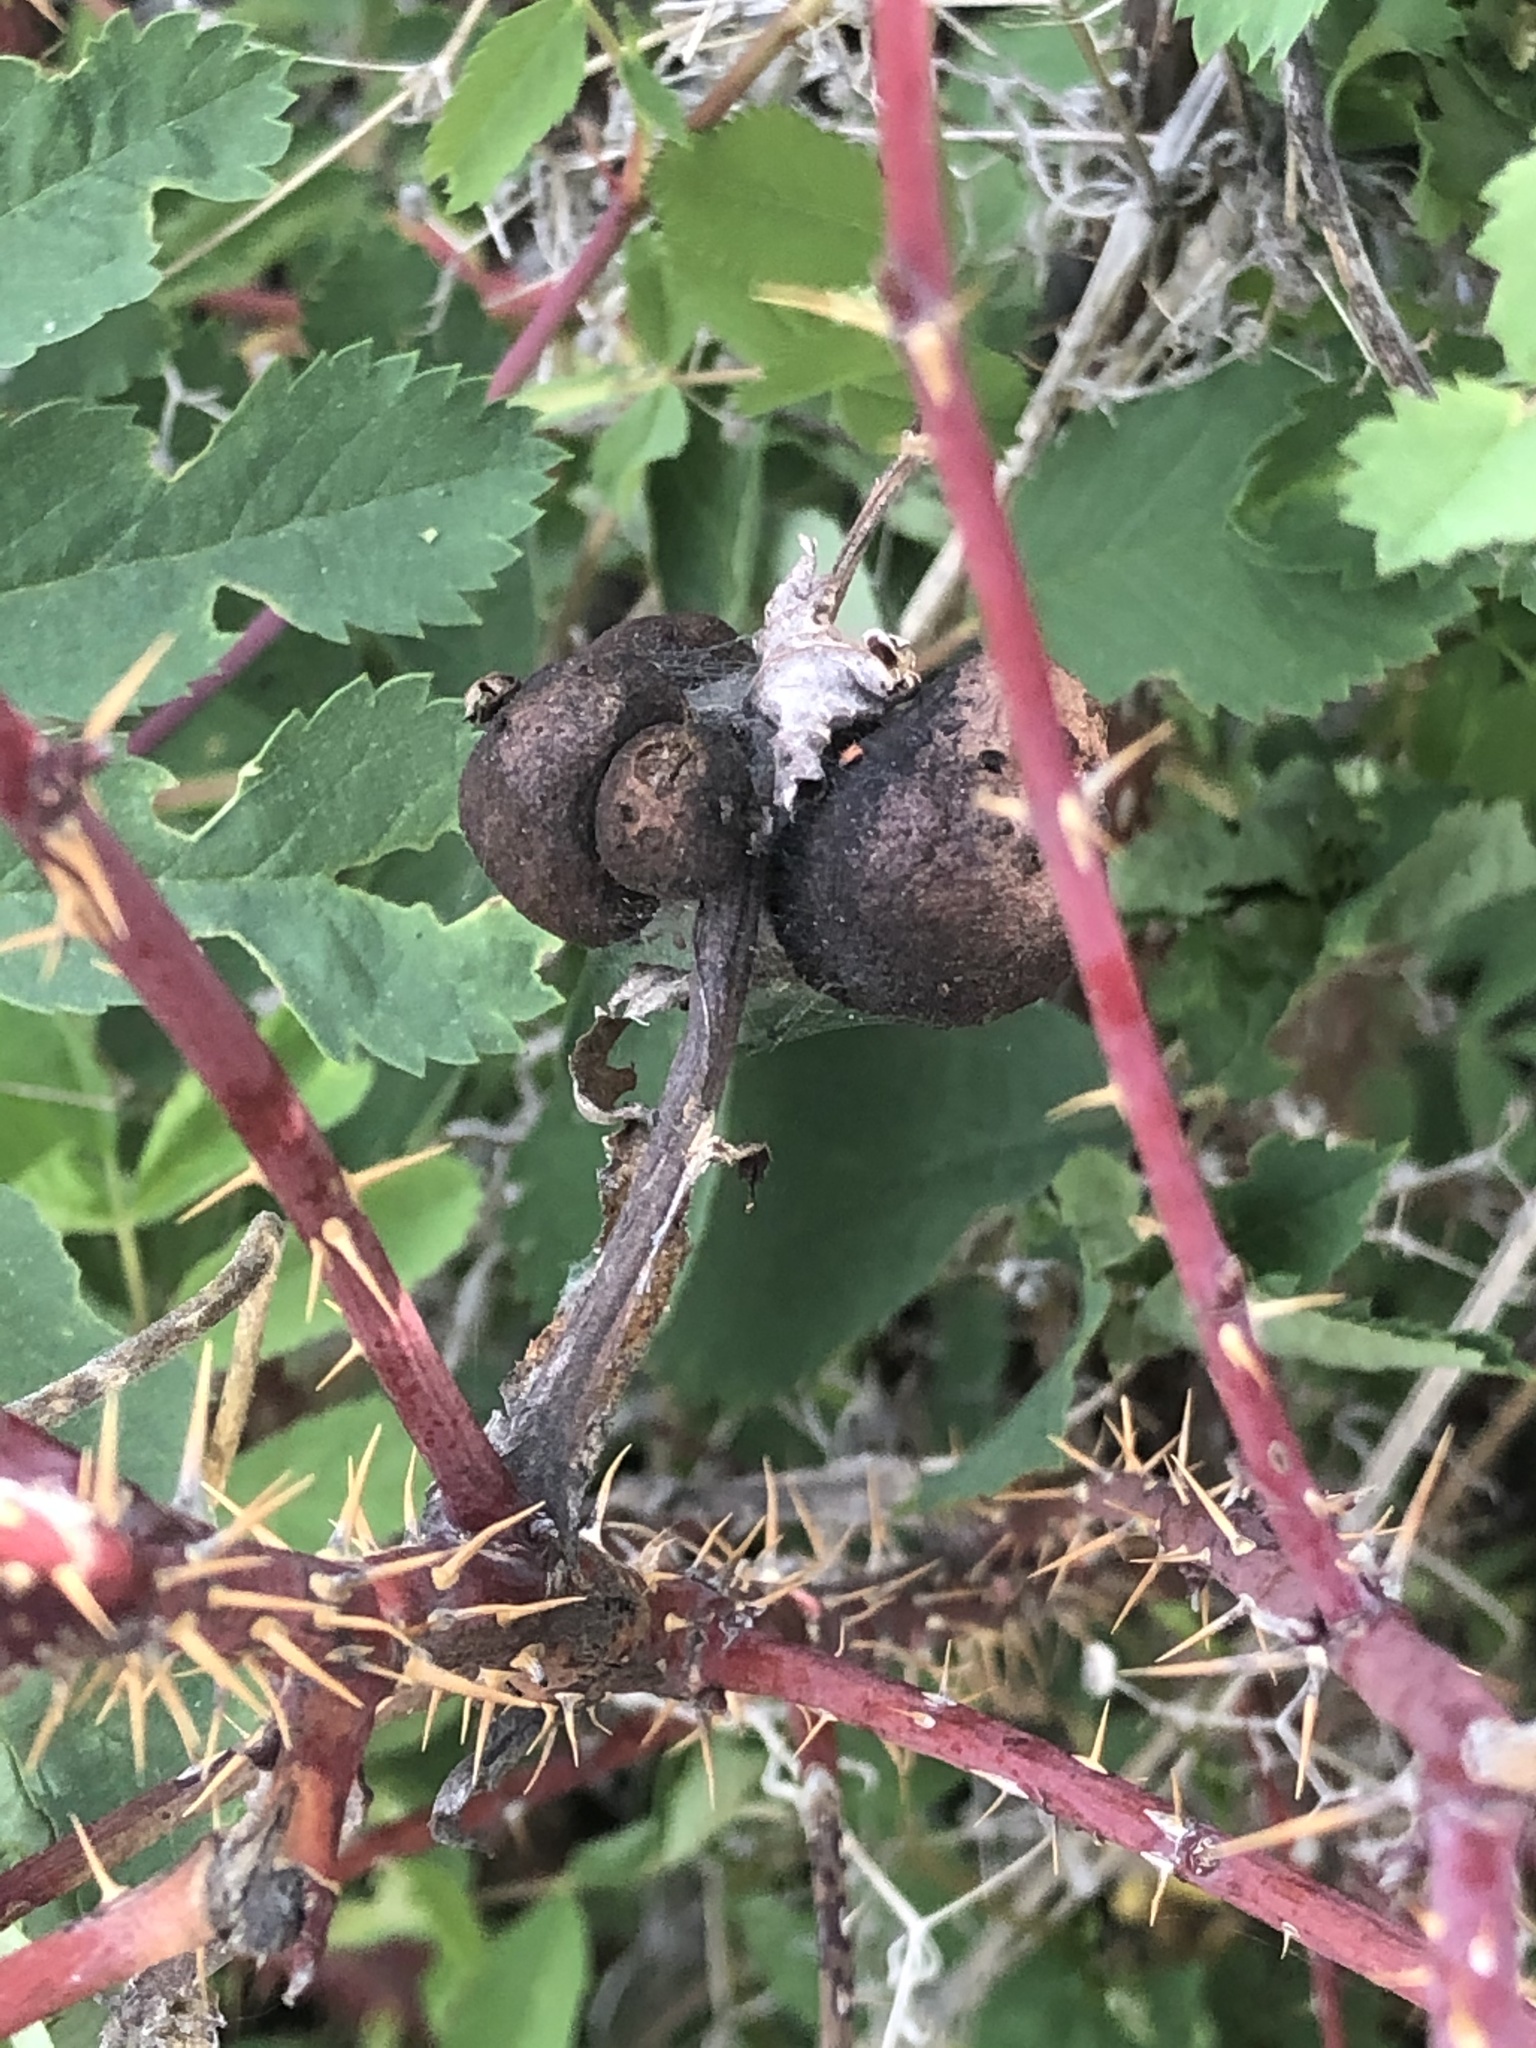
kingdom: Animalia
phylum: Arthropoda
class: Insecta
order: Hymenoptera
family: Cynipidae
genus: Diplolepis
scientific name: Diplolepis variabilis
